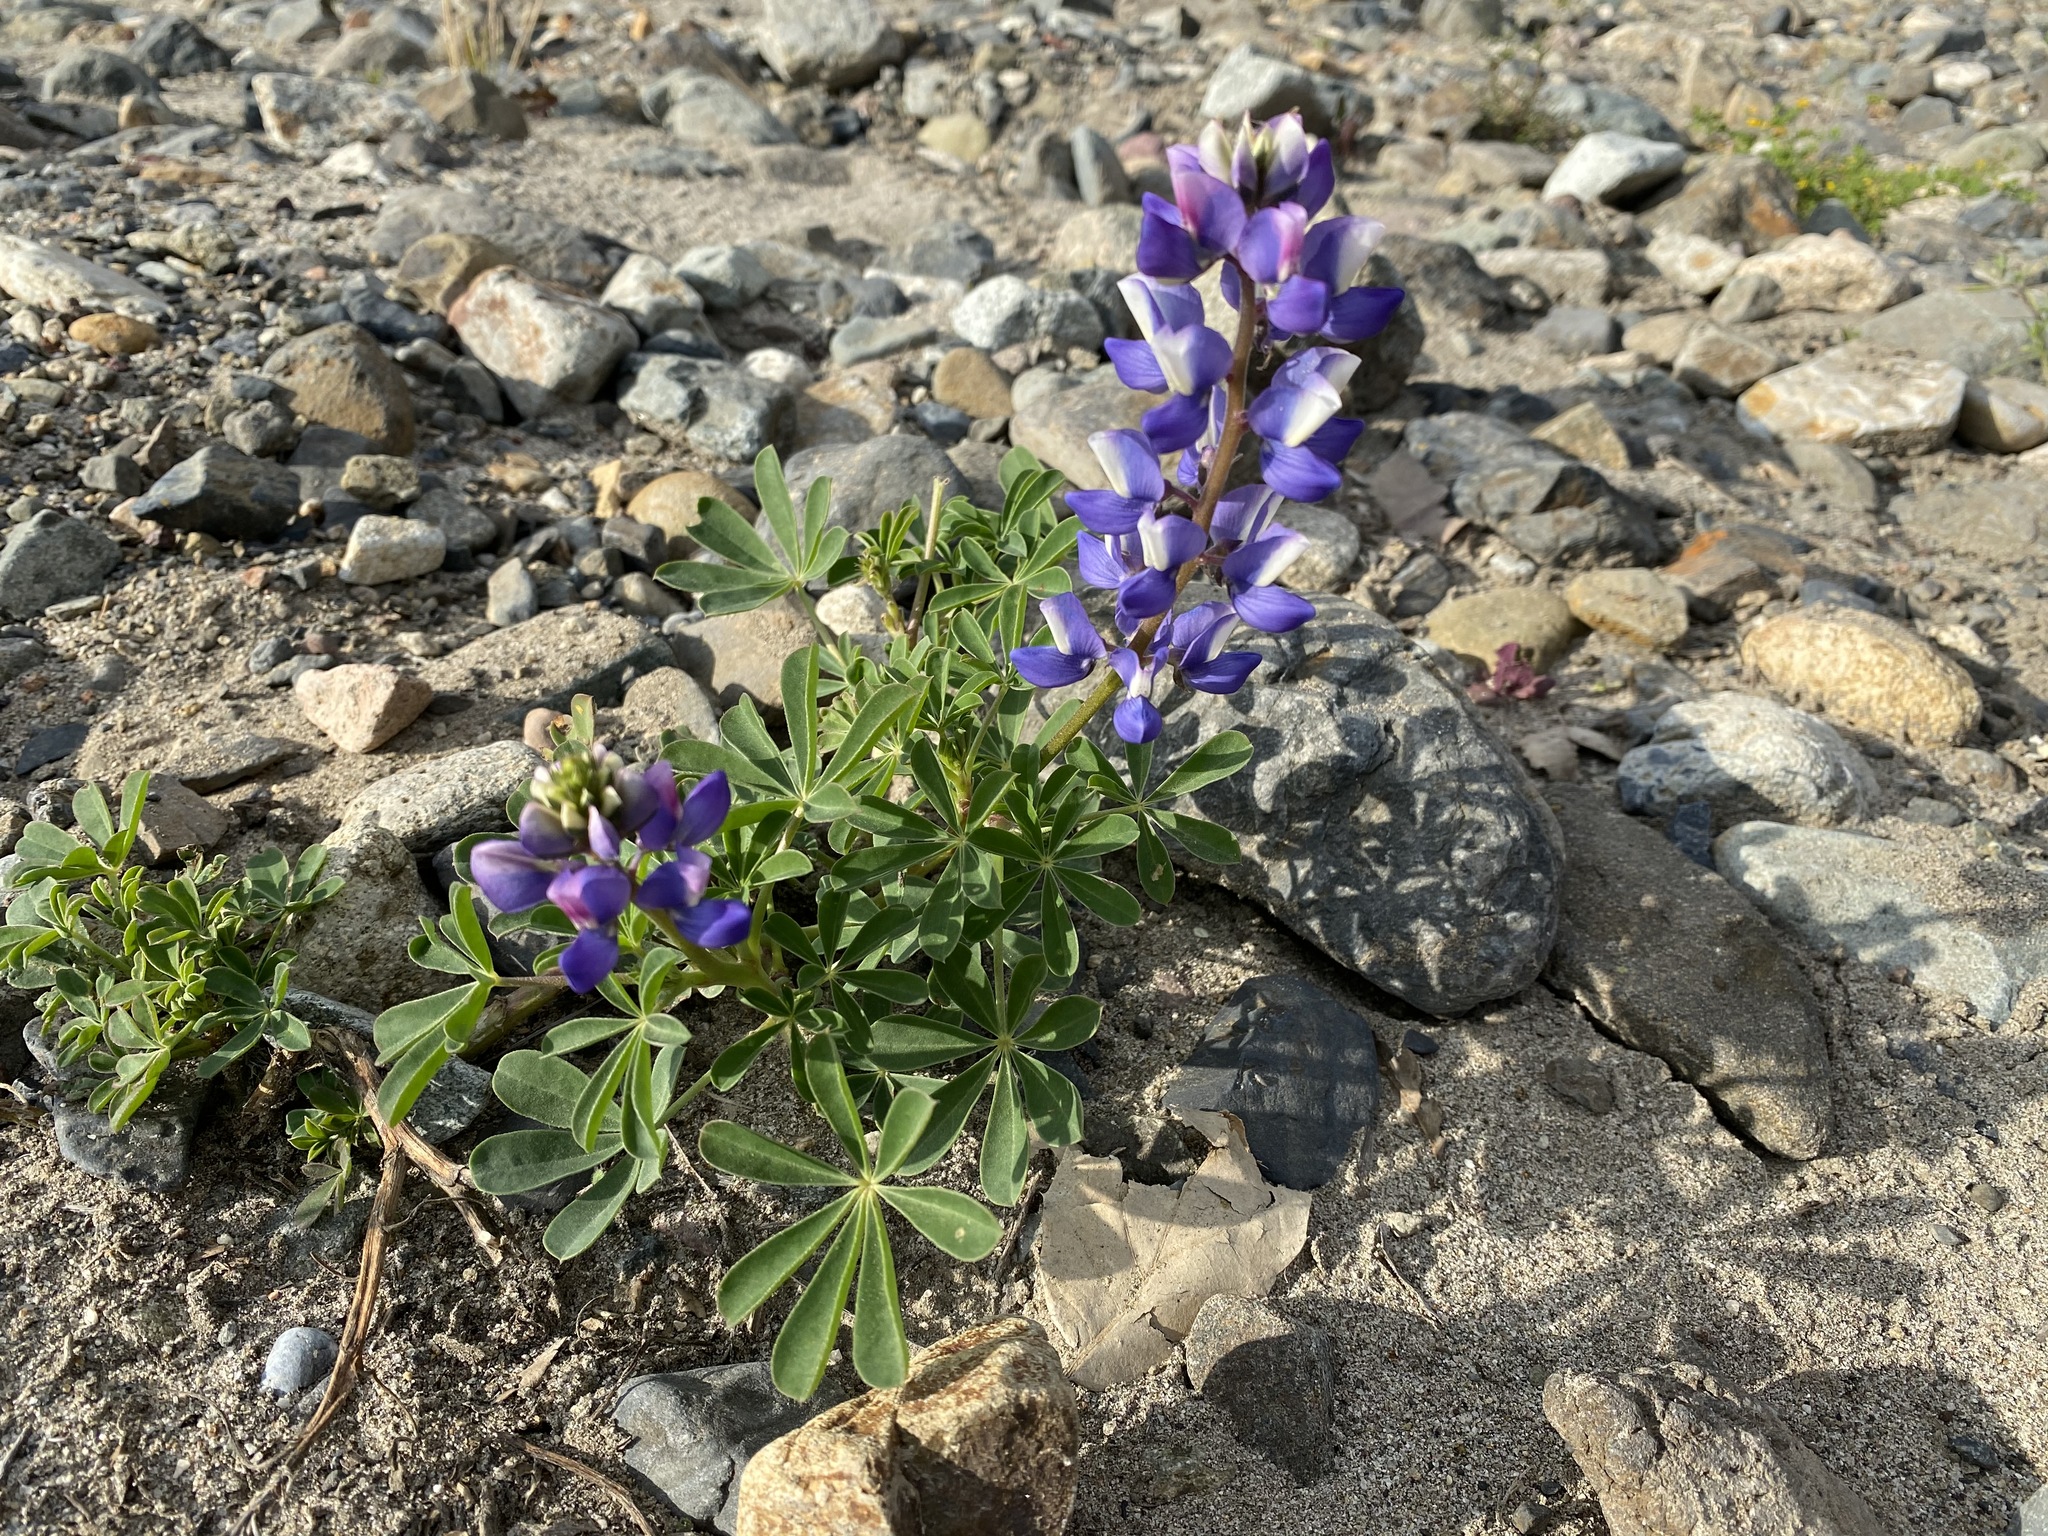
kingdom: Plantae
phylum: Tracheophyta
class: Magnoliopsida
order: Fabales
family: Fabaceae
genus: Lupinus
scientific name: Lupinus succulentus
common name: Arroyo lupine
